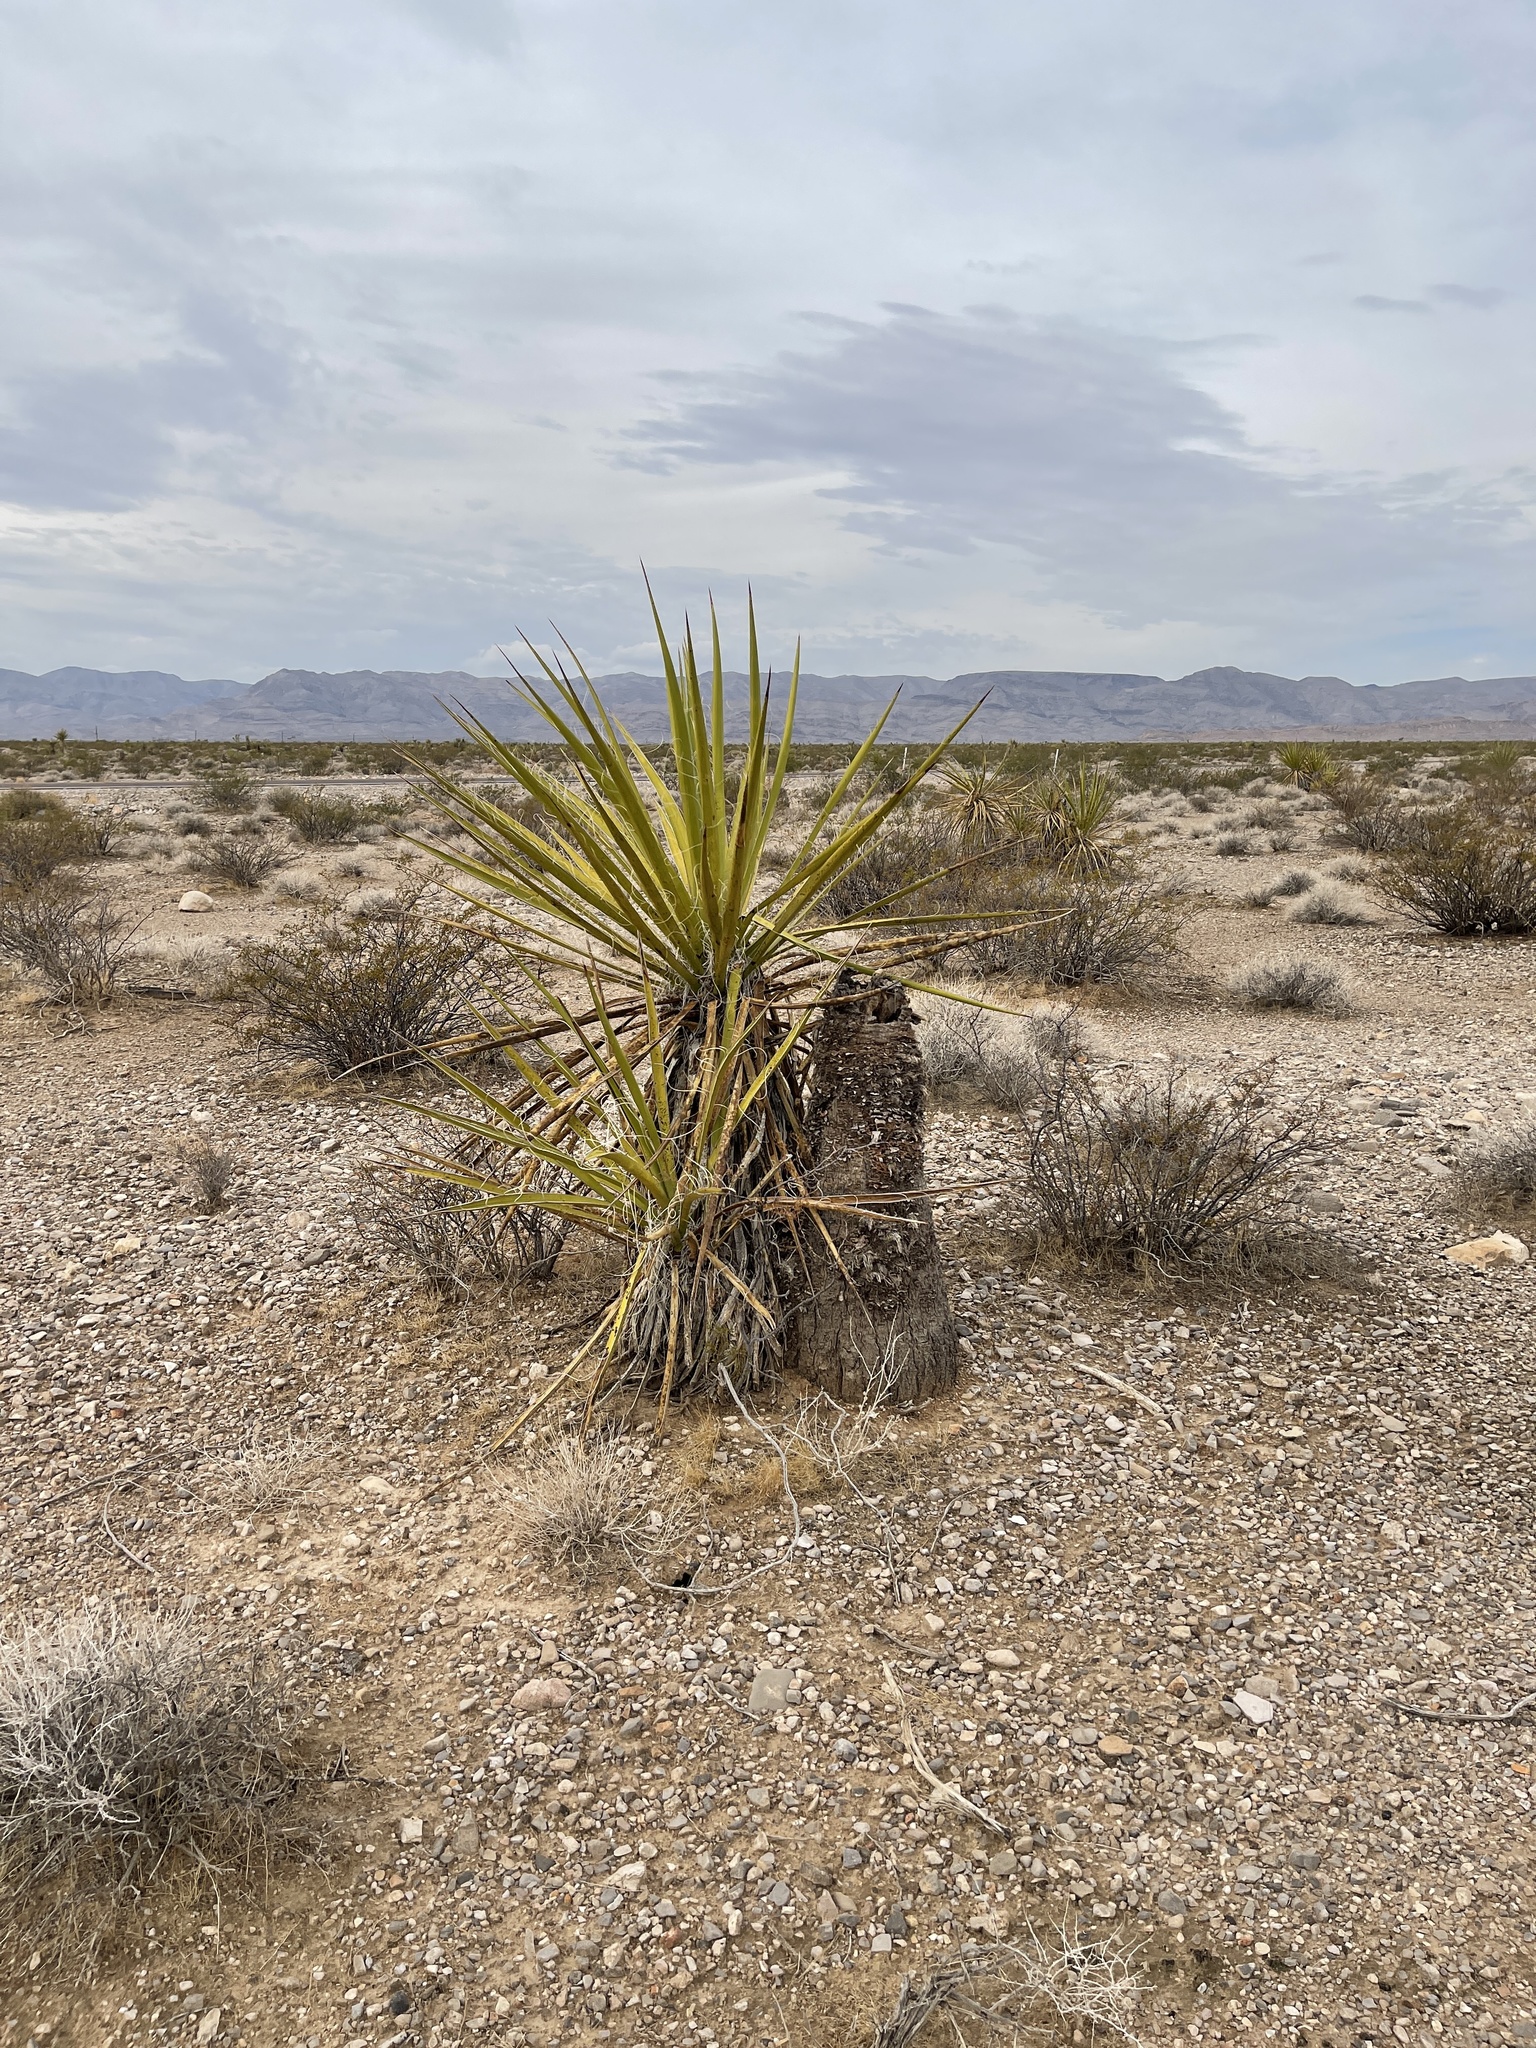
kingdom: Plantae
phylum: Tracheophyta
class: Liliopsida
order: Asparagales
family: Asparagaceae
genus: Yucca
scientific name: Yucca schidigera
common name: Mojave yucca
